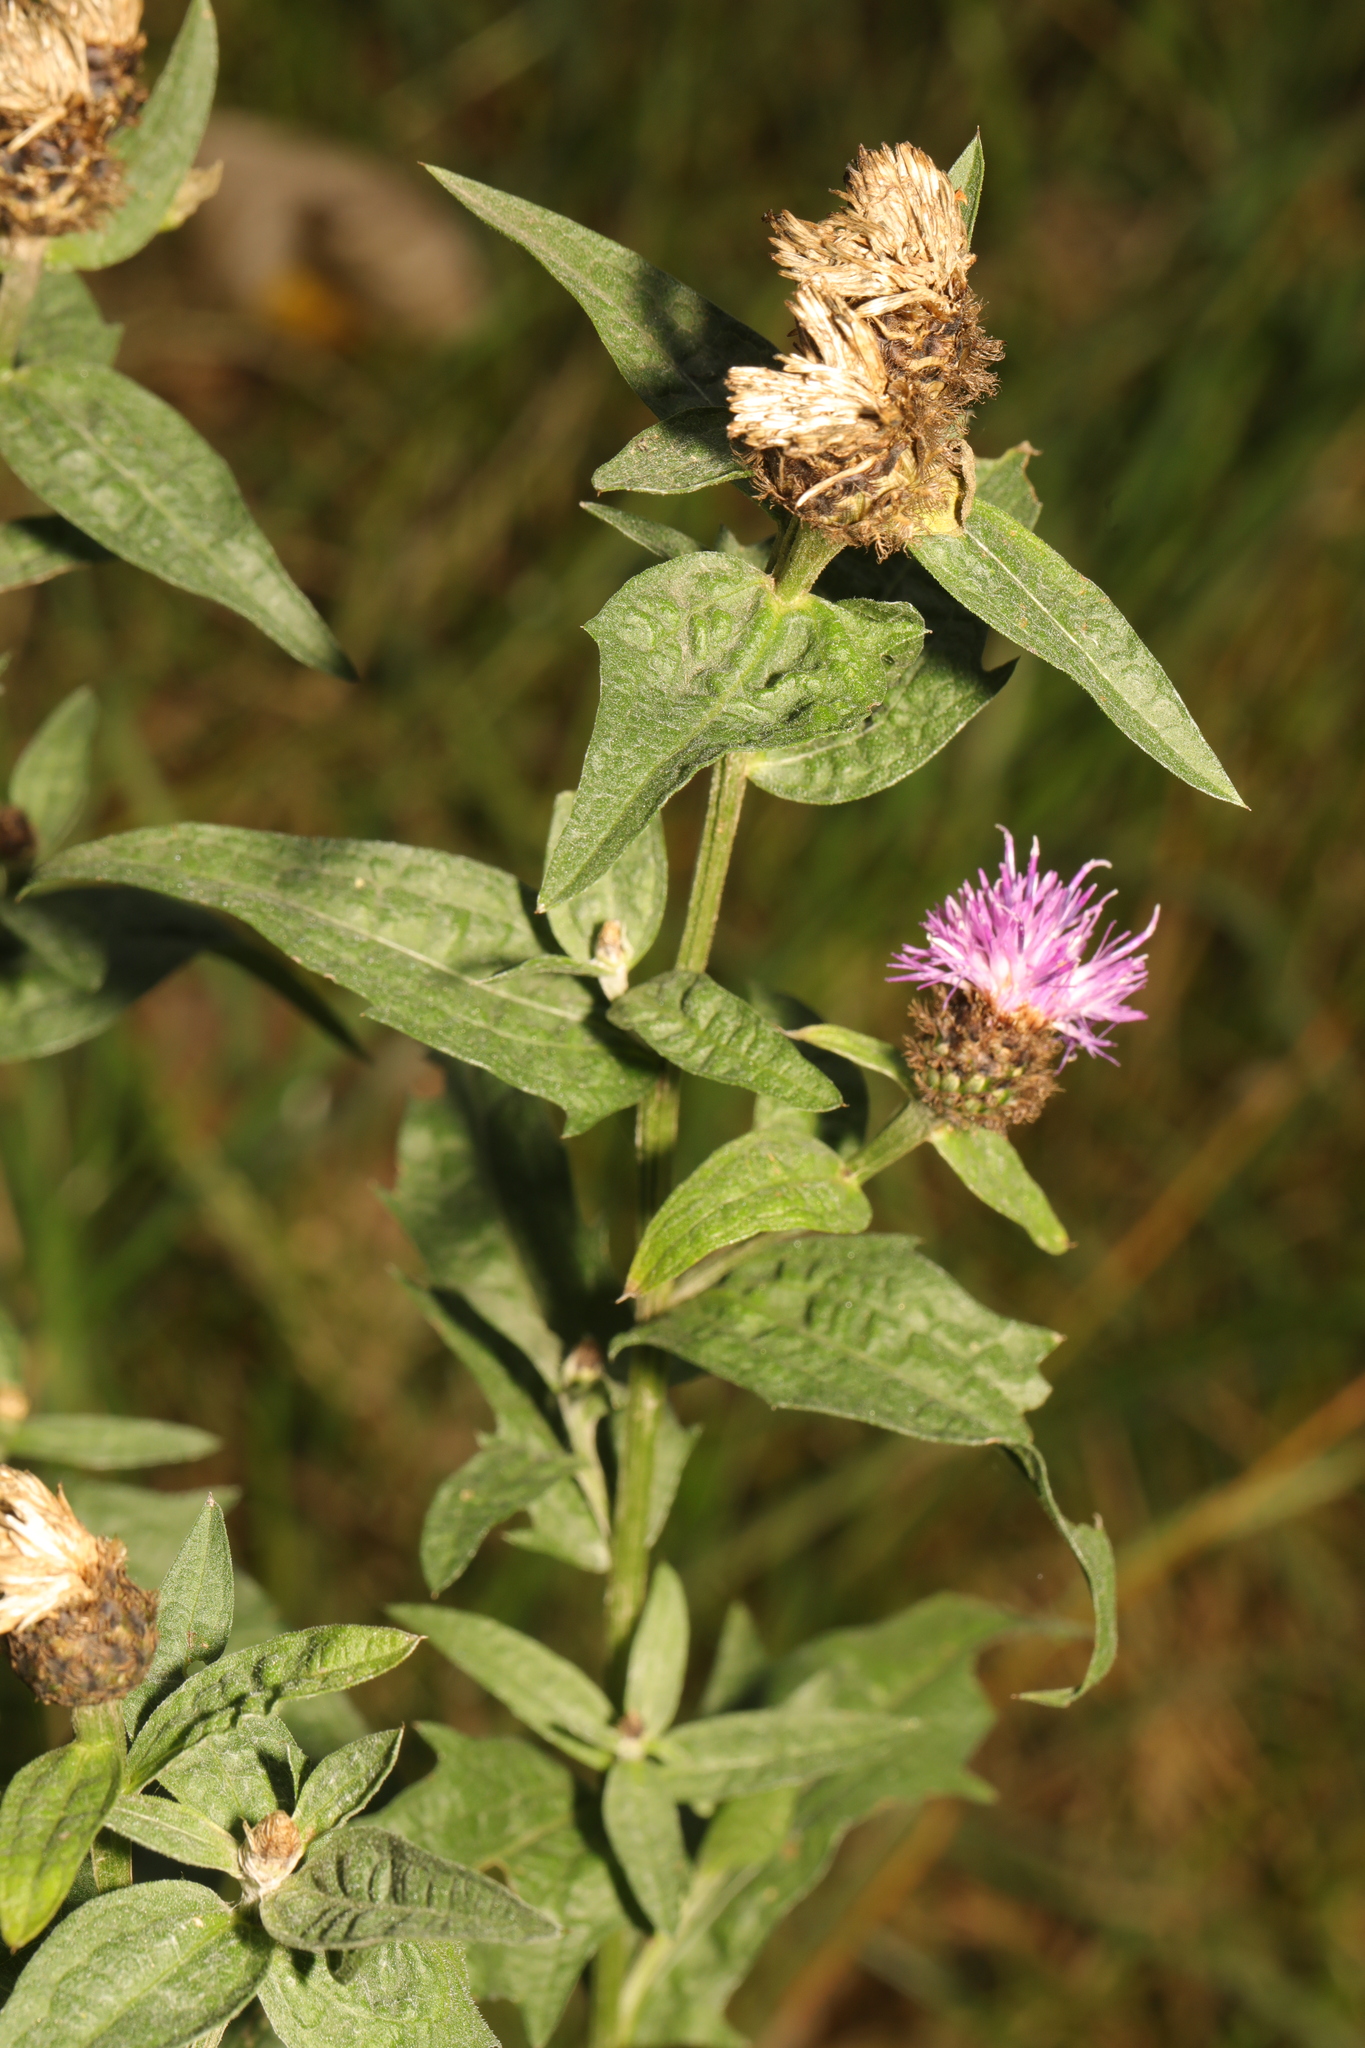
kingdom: Plantae
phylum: Tracheophyta
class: Magnoliopsida
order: Asterales
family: Asteraceae
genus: Centaurea
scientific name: Centaurea nigra
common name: Lesser knapweed
